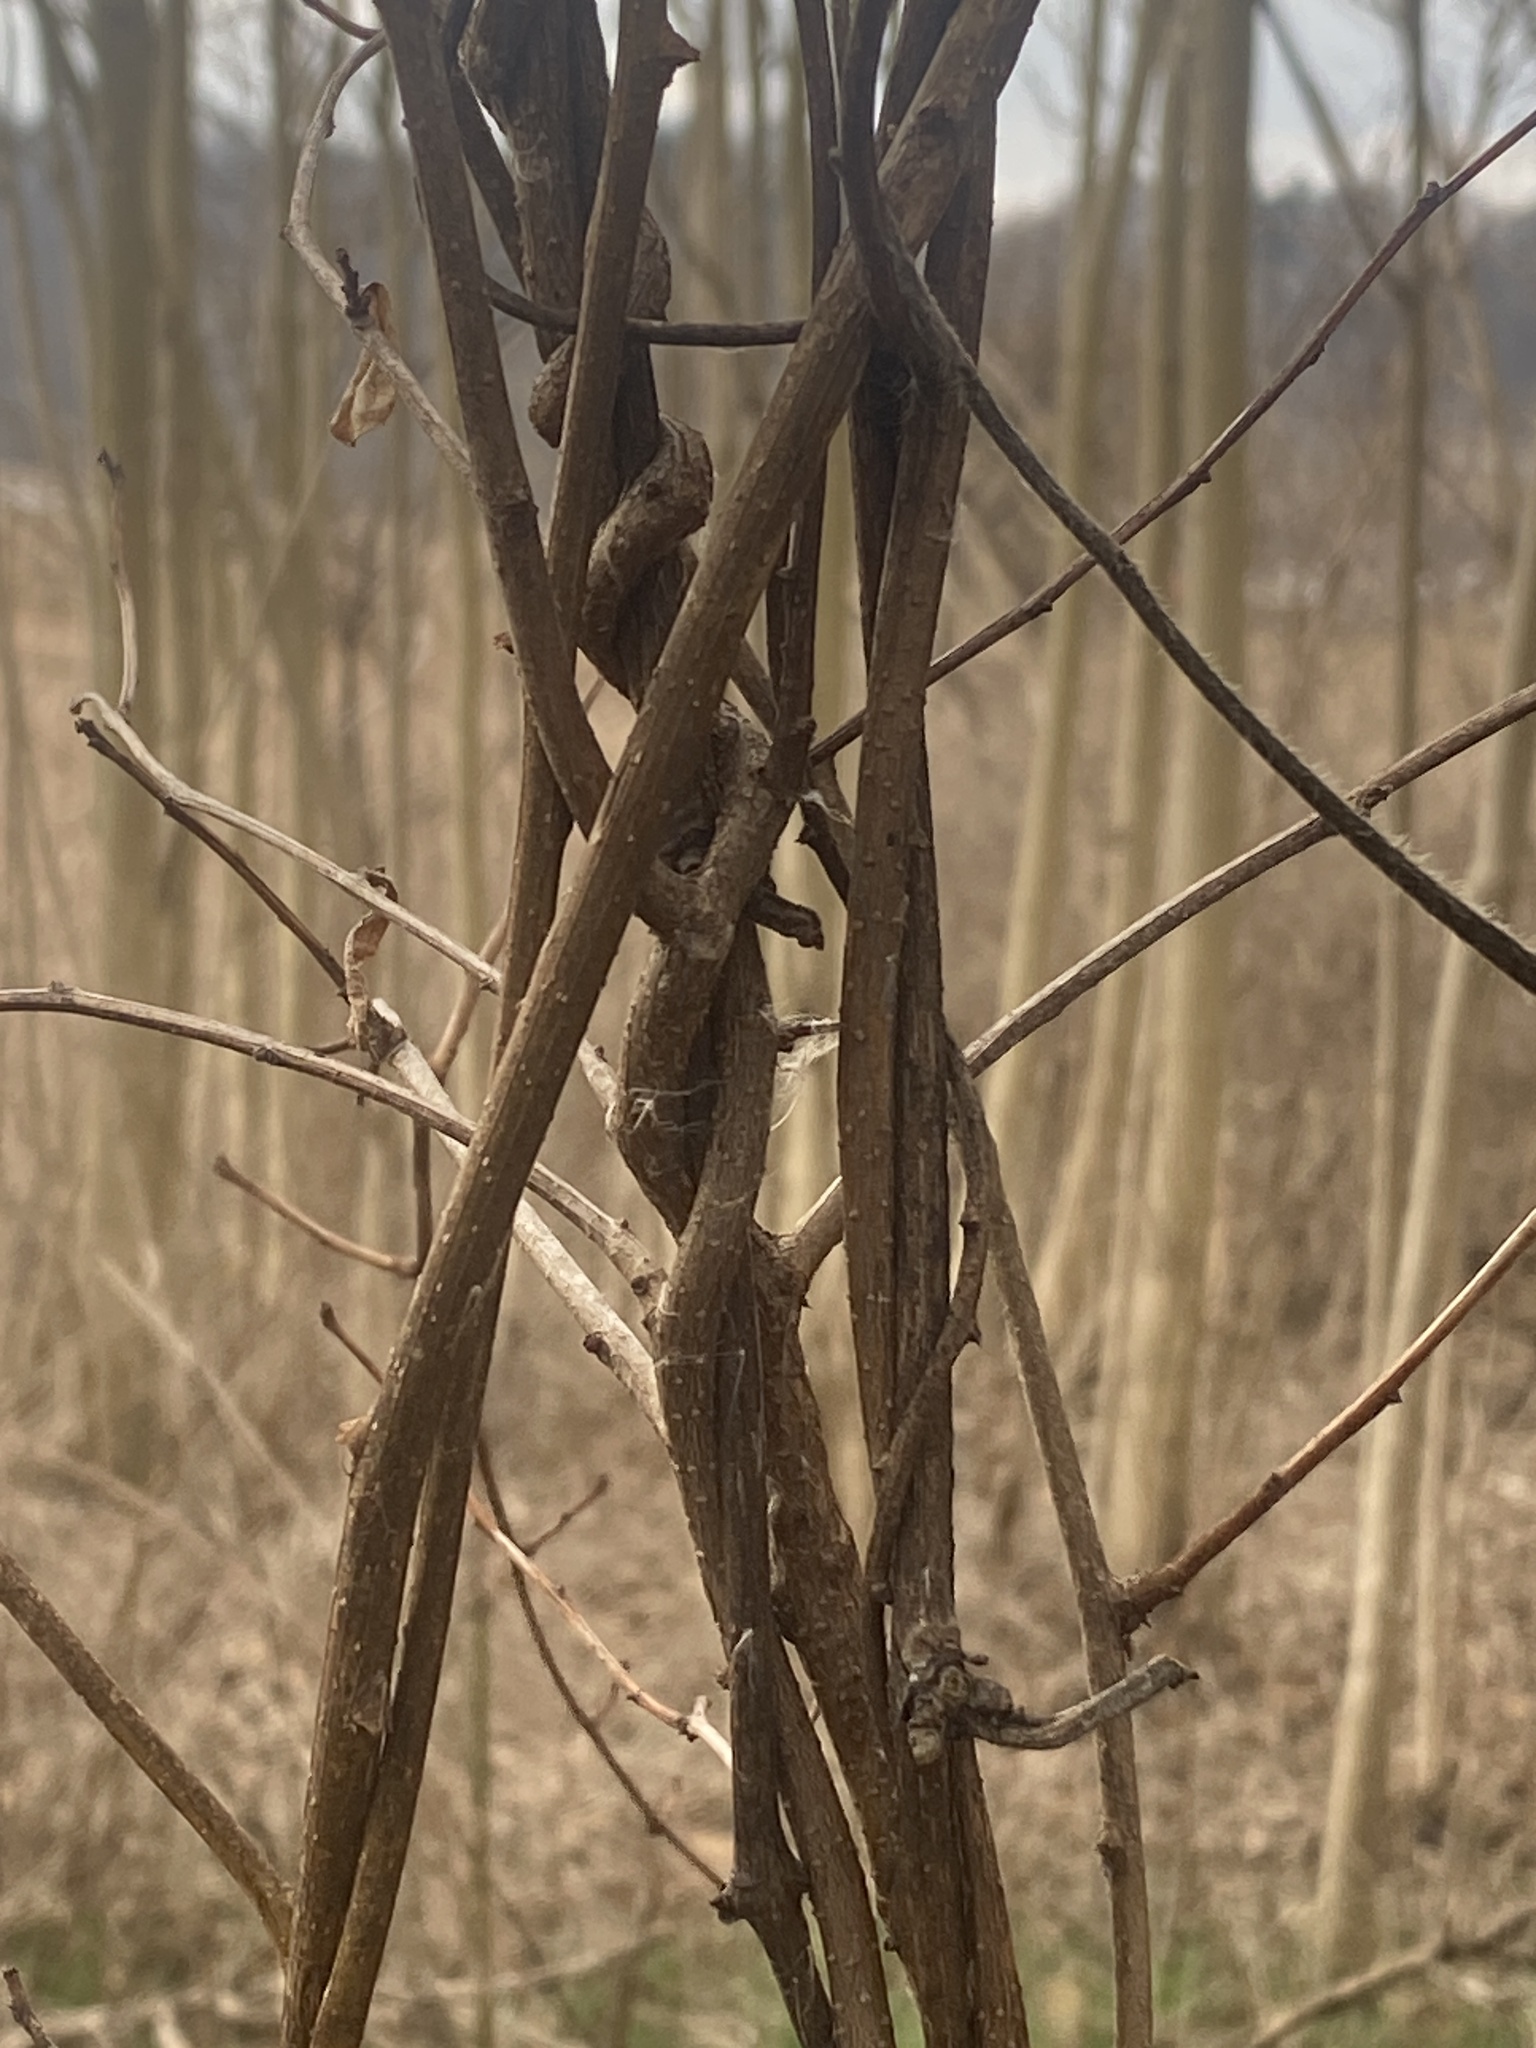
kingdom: Plantae
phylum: Tracheophyta
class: Magnoliopsida
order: Celastrales
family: Celastraceae
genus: Celastrus
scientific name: Celastrus orbiculatus
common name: Oriental bittersweet
